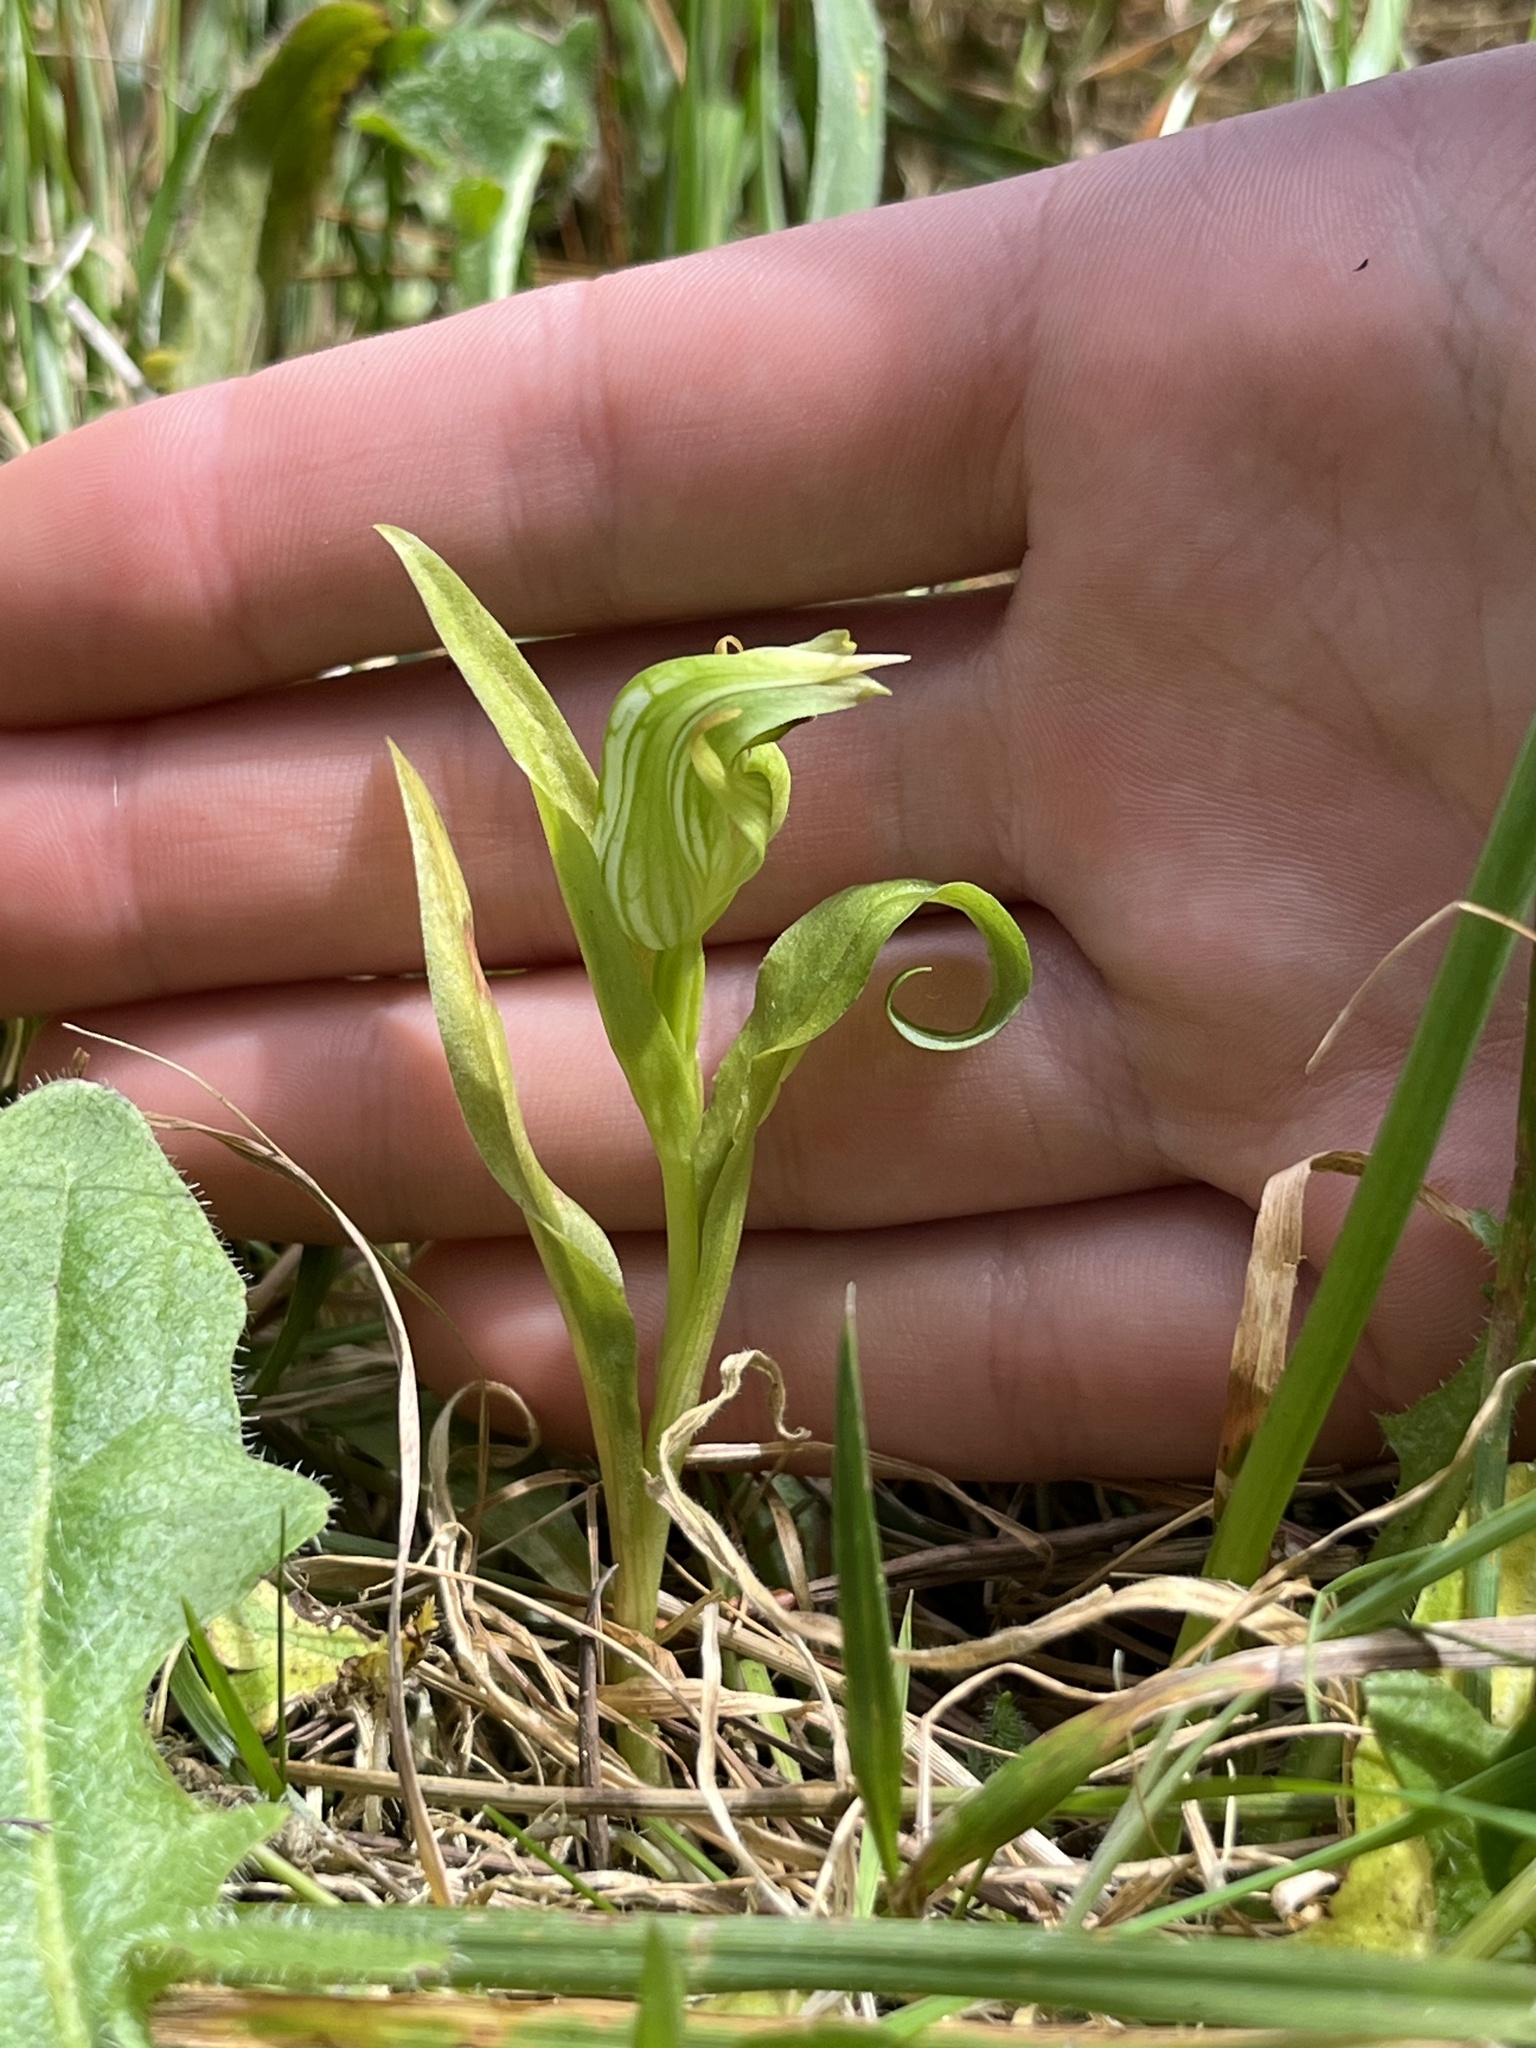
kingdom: Plantae
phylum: Tracheophyta
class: Liliopsida
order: Asparagales
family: Orchidaceae
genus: Pterostylis
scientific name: Pterostylis montana
